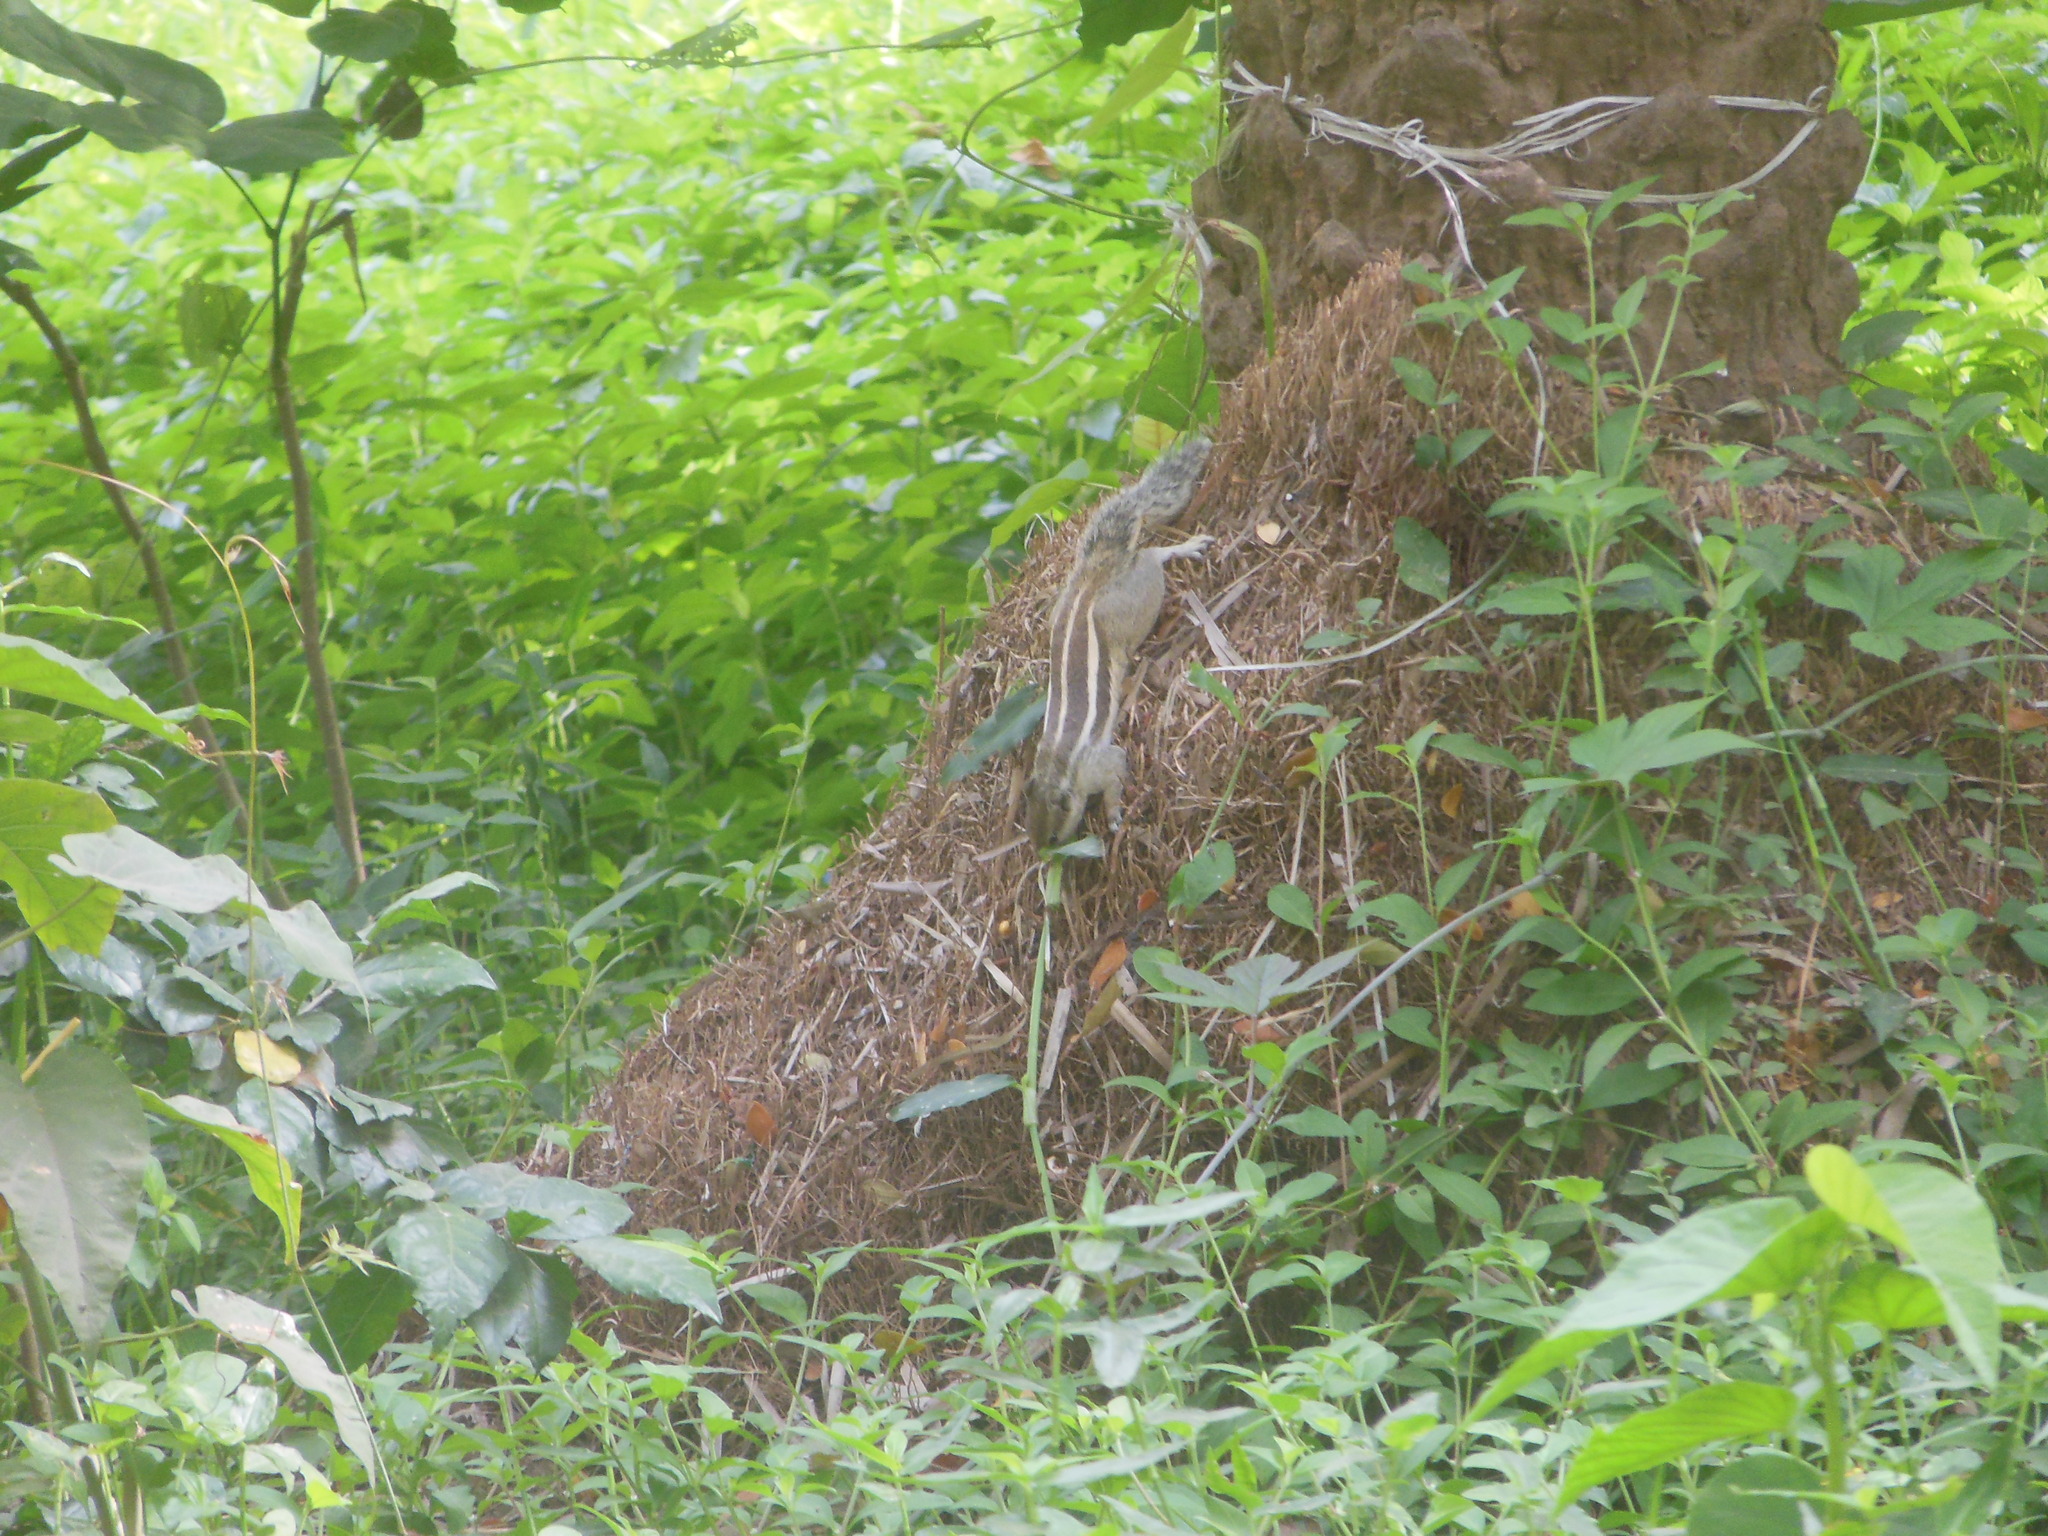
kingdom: Animalia
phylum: Chordata
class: Mammalia
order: Rodentia
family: Sciuridae
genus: Funambulus
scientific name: Funambulus pennantii
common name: Northern palm squirrel
